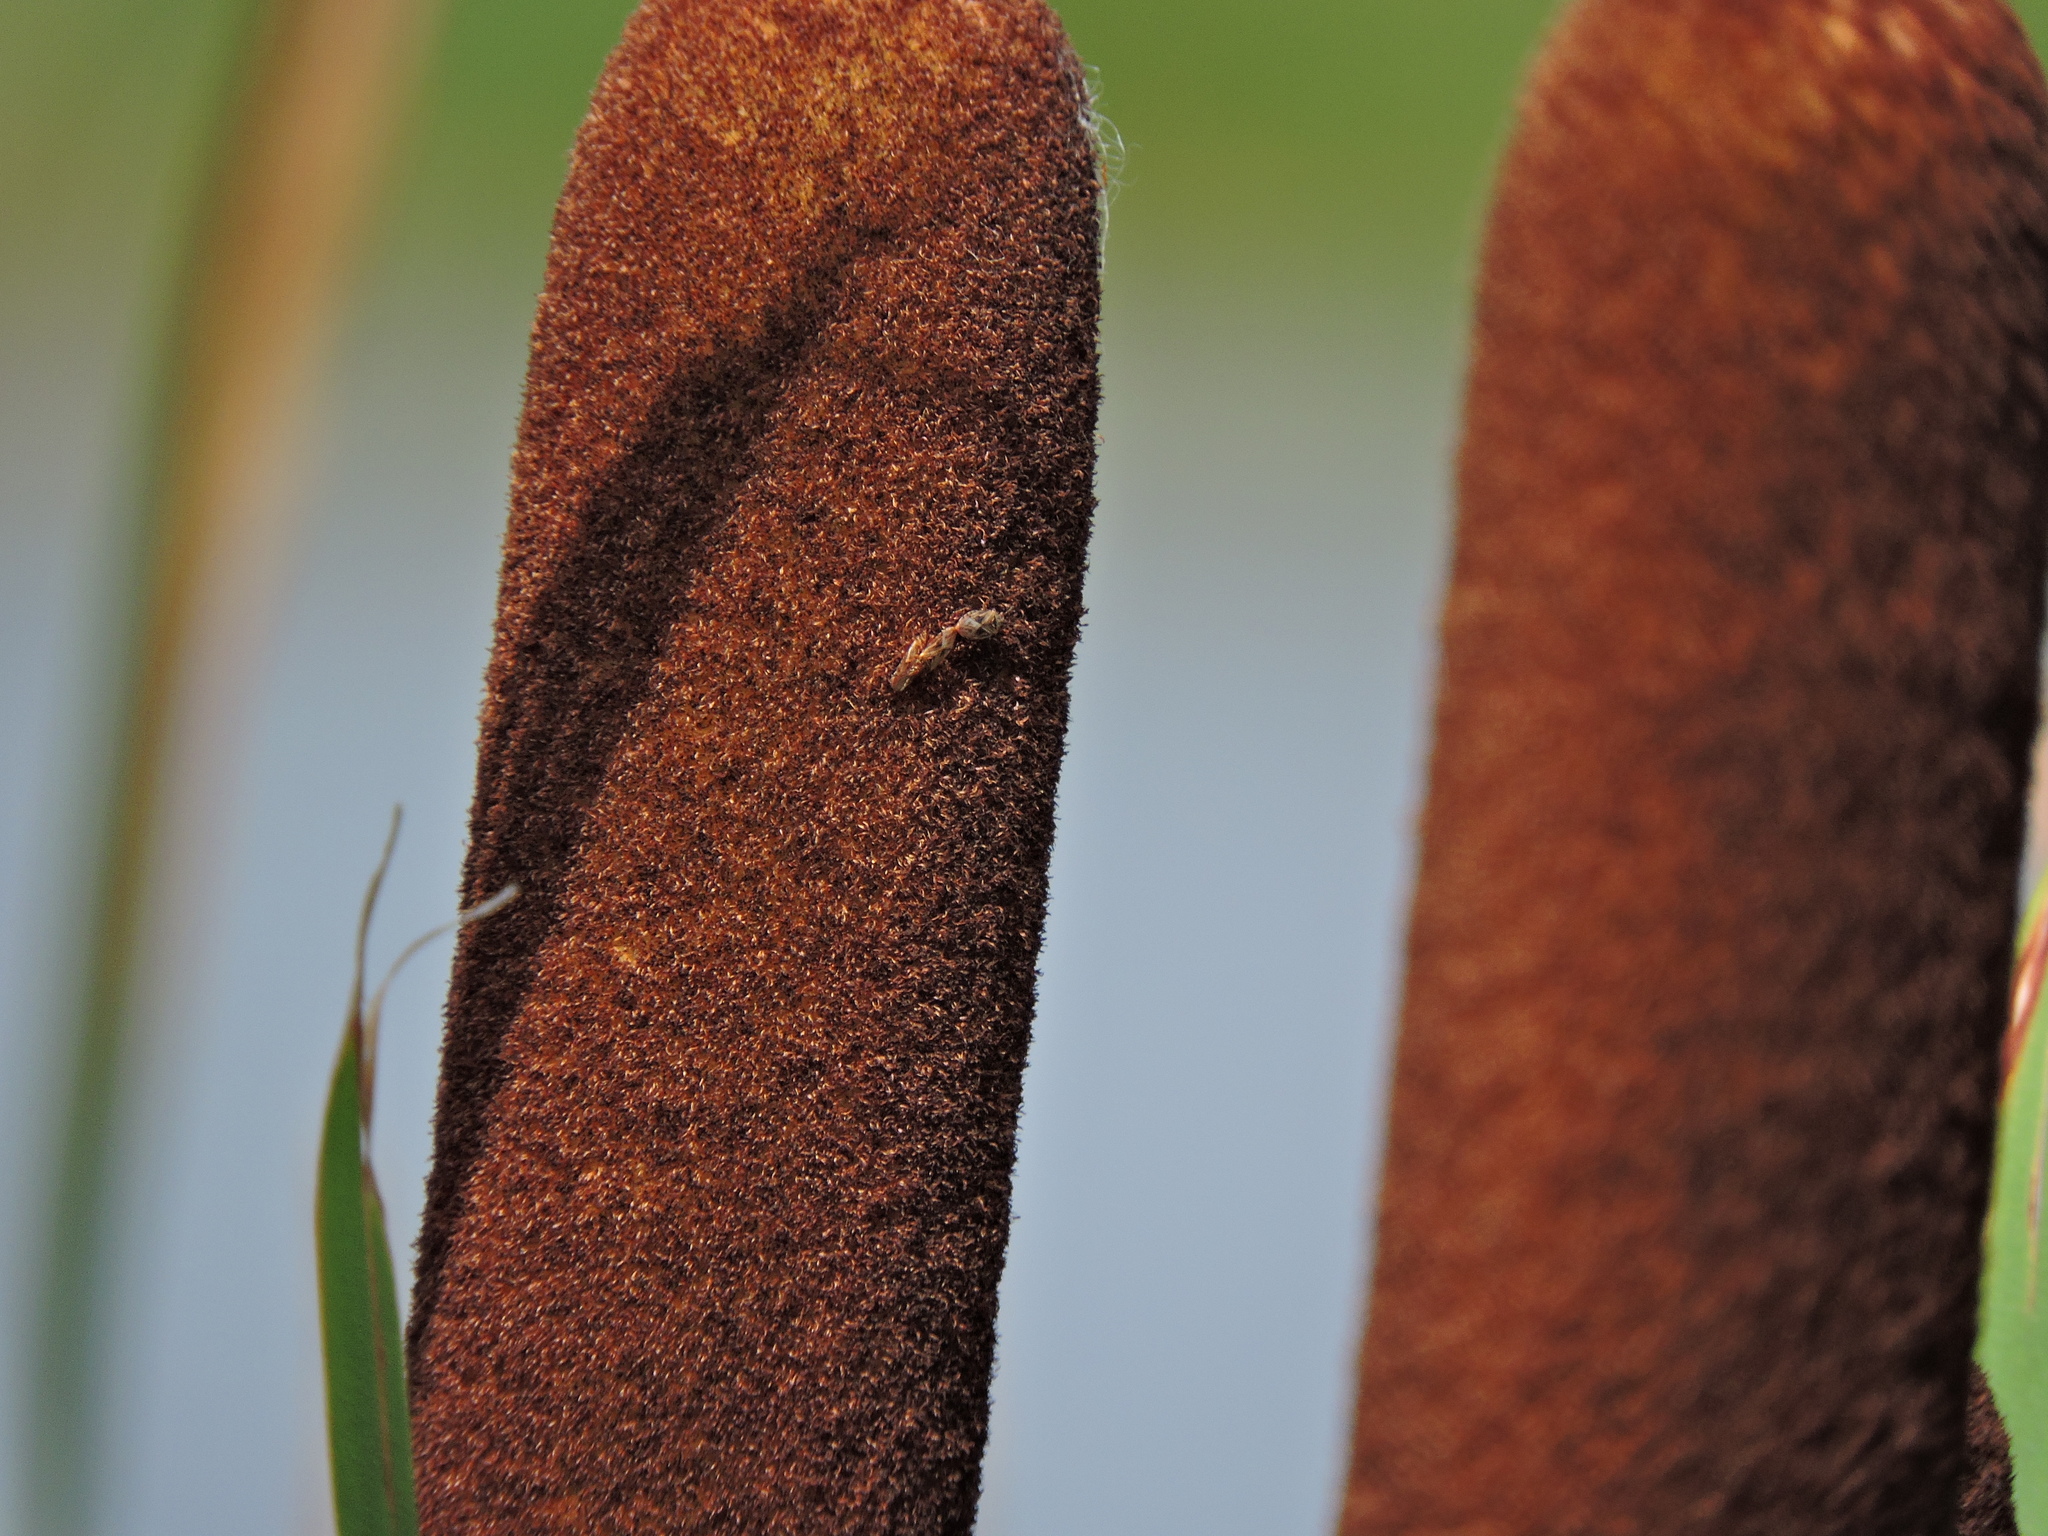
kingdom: Animalia
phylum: Arthropoda
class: Insecta
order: Hemiptera
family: Artheneidae
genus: Chilacis
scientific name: Chilacis typhae
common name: Cattail bug
